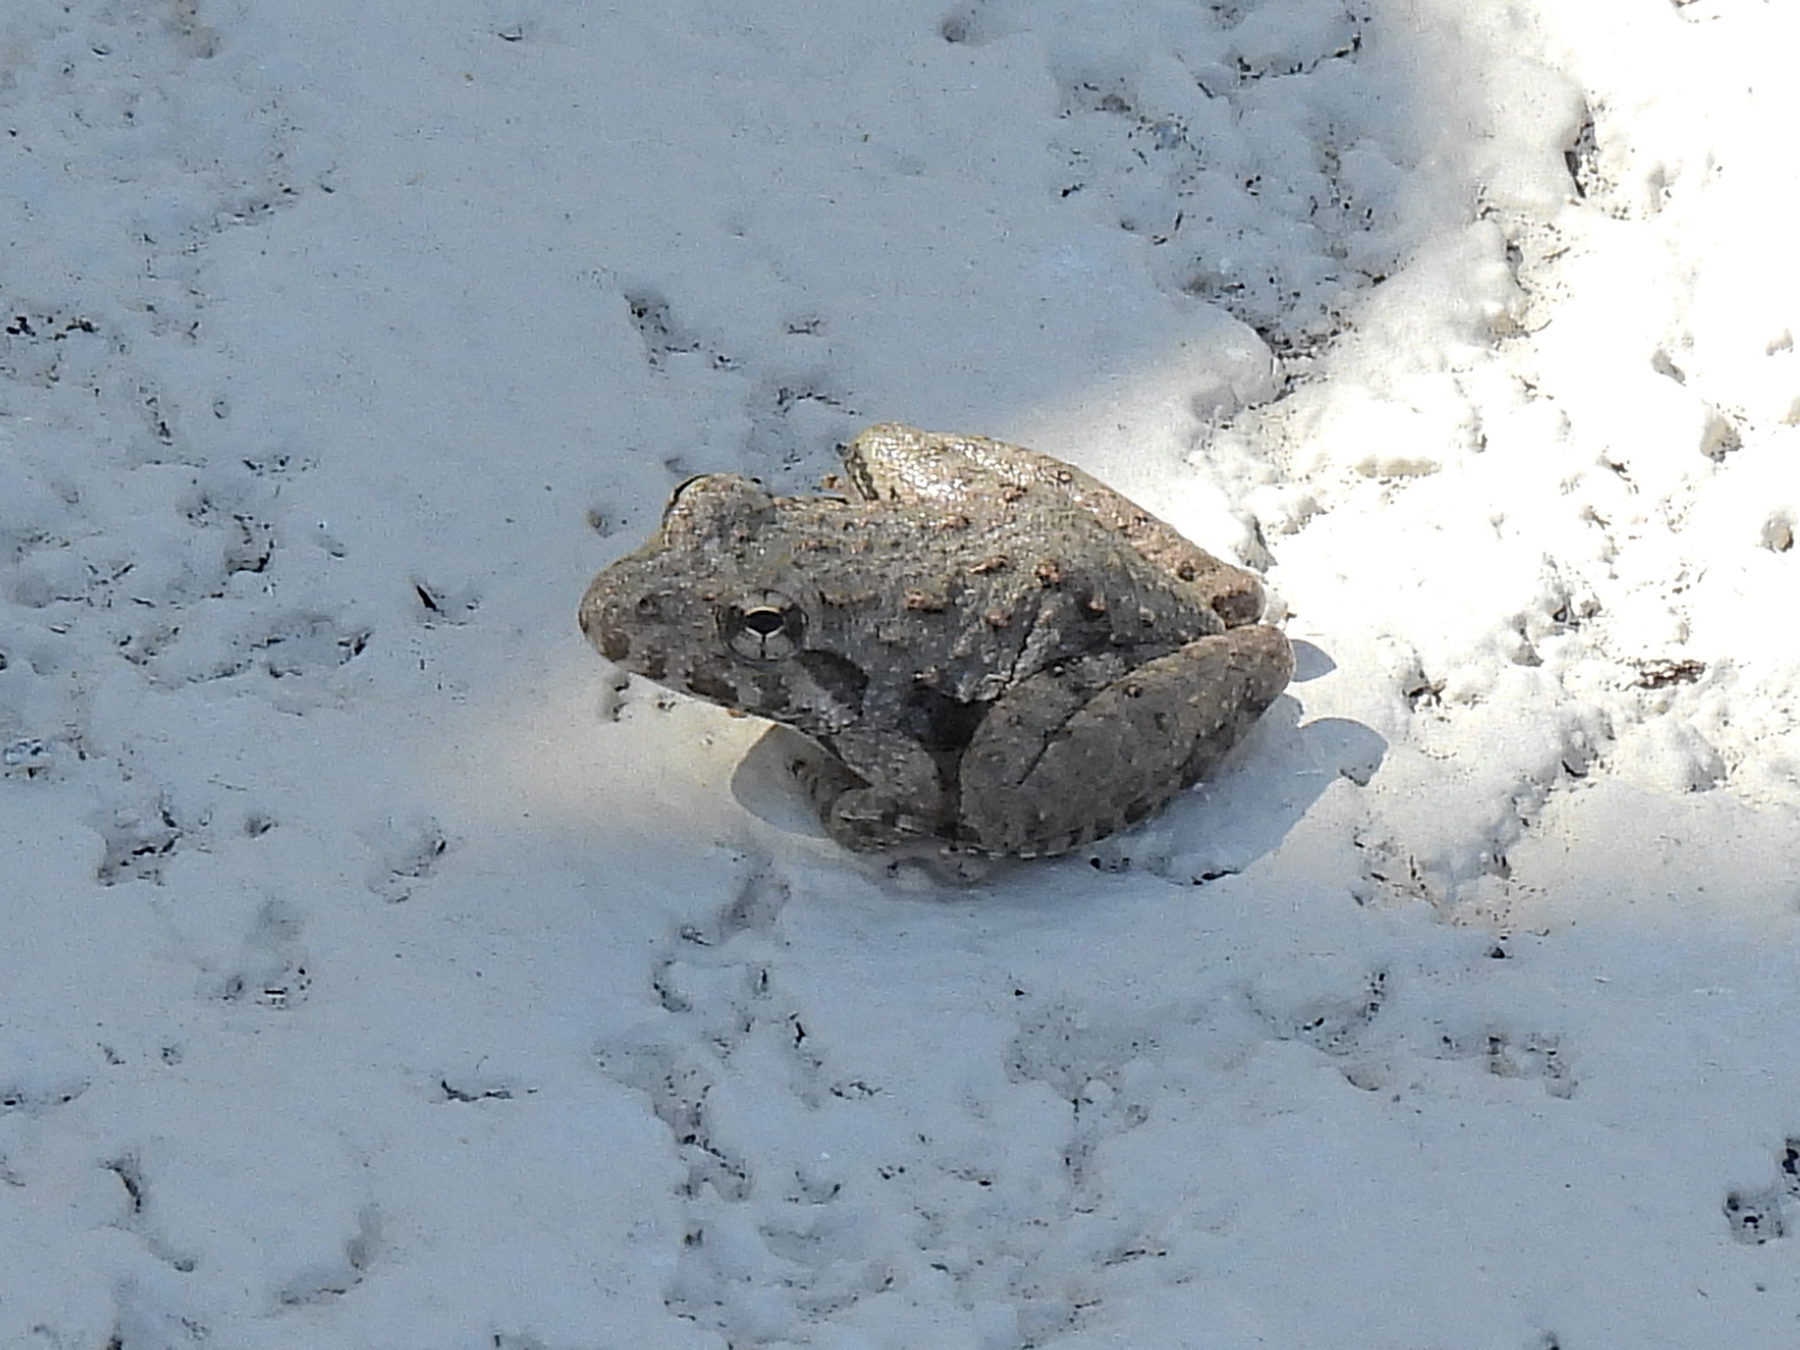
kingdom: Animalia
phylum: Chordata
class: Amphibia
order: Anura
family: Hylidae
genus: Acris
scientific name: Acris blanchardi
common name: Blanchard's cricket frog
